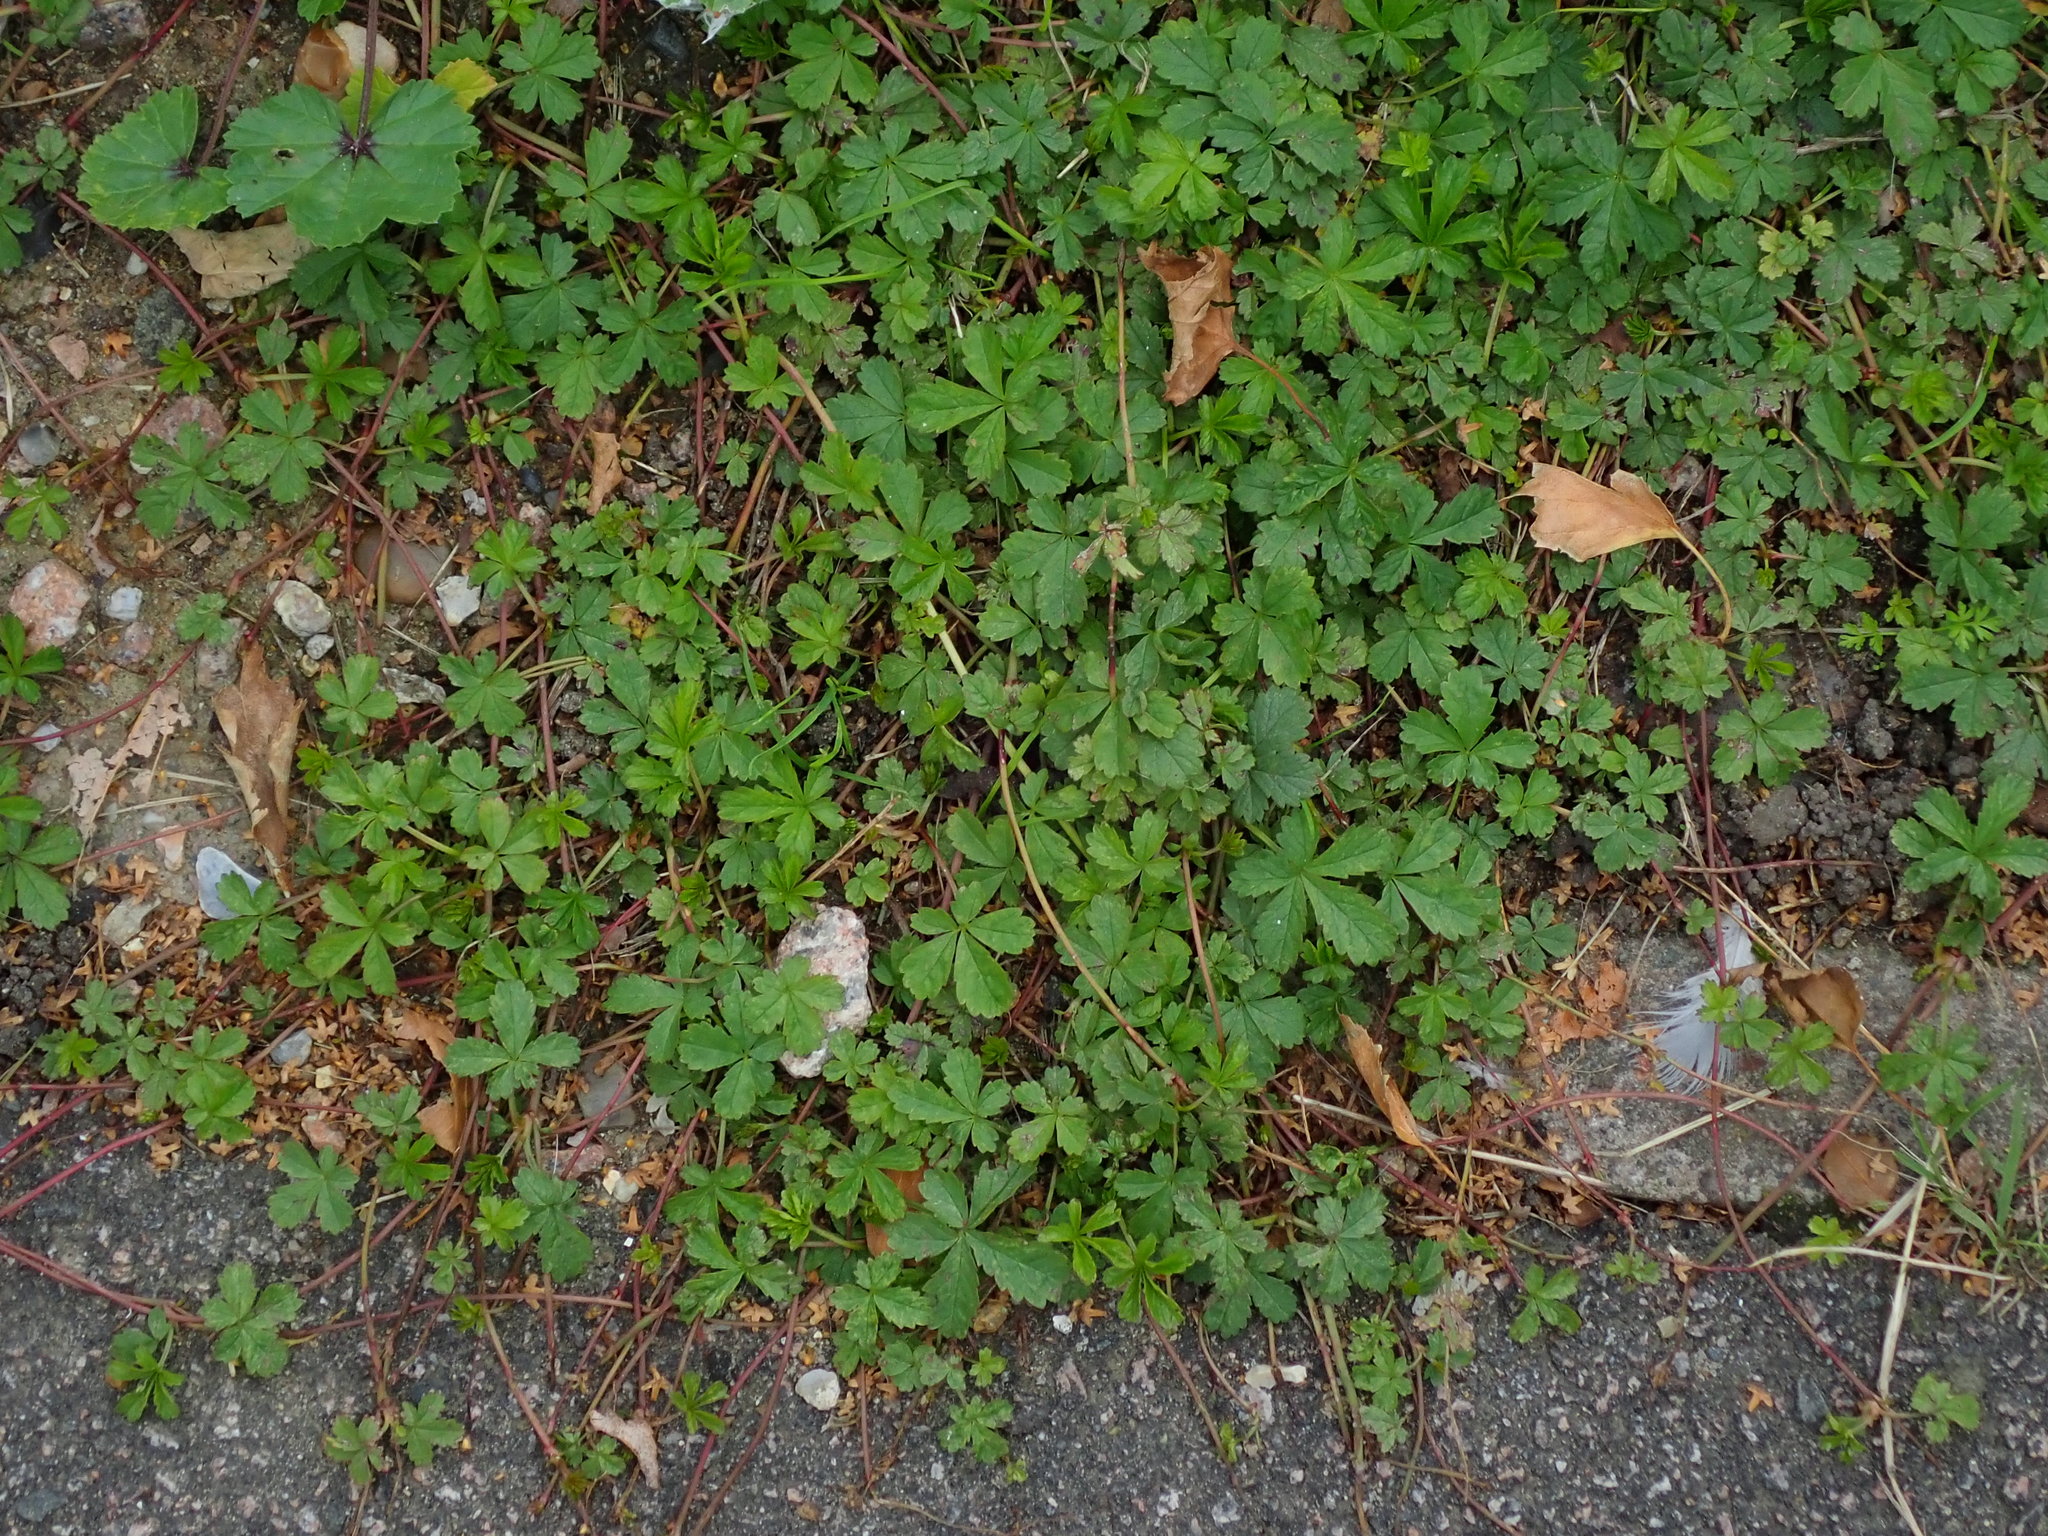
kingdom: Plantae
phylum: Tracheophyta
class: Magnoliopsida
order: Rosales
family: Rosaceae
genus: Potentilla
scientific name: Potentilla reptans
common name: Creeping cinquefoil
